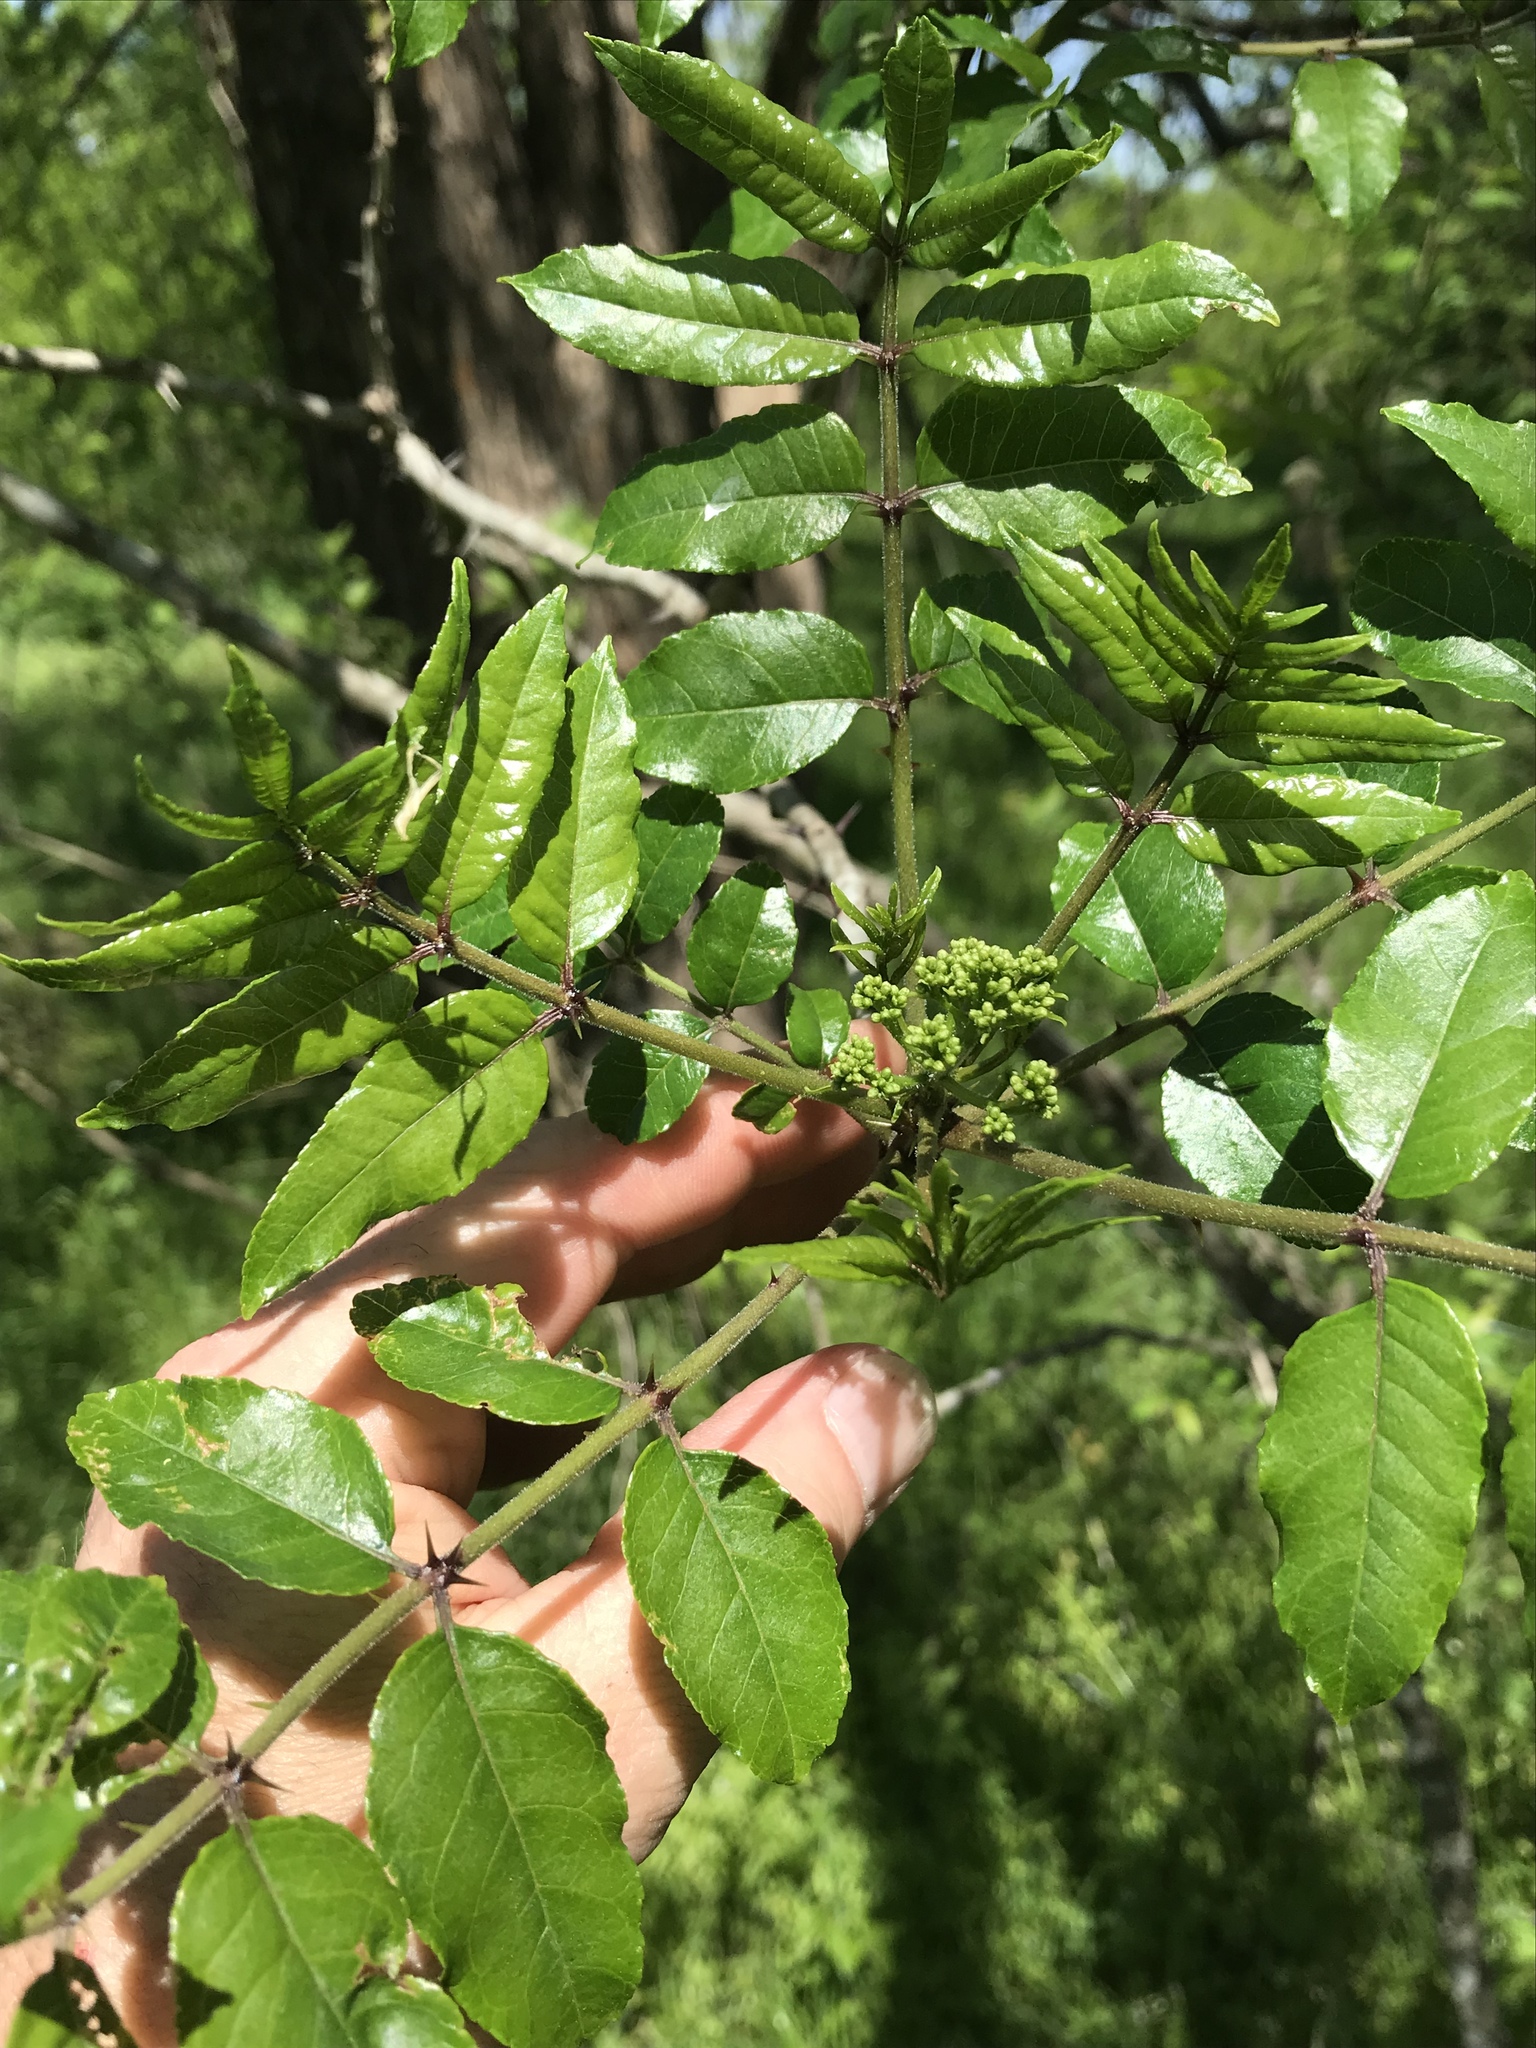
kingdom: Plantae
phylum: Tracheophyta
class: Magnoliopsida
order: Sapindales
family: Rutaceae
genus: Zanthoxylum
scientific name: Zanthoxylum clava-herculis
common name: Hercules'-club
